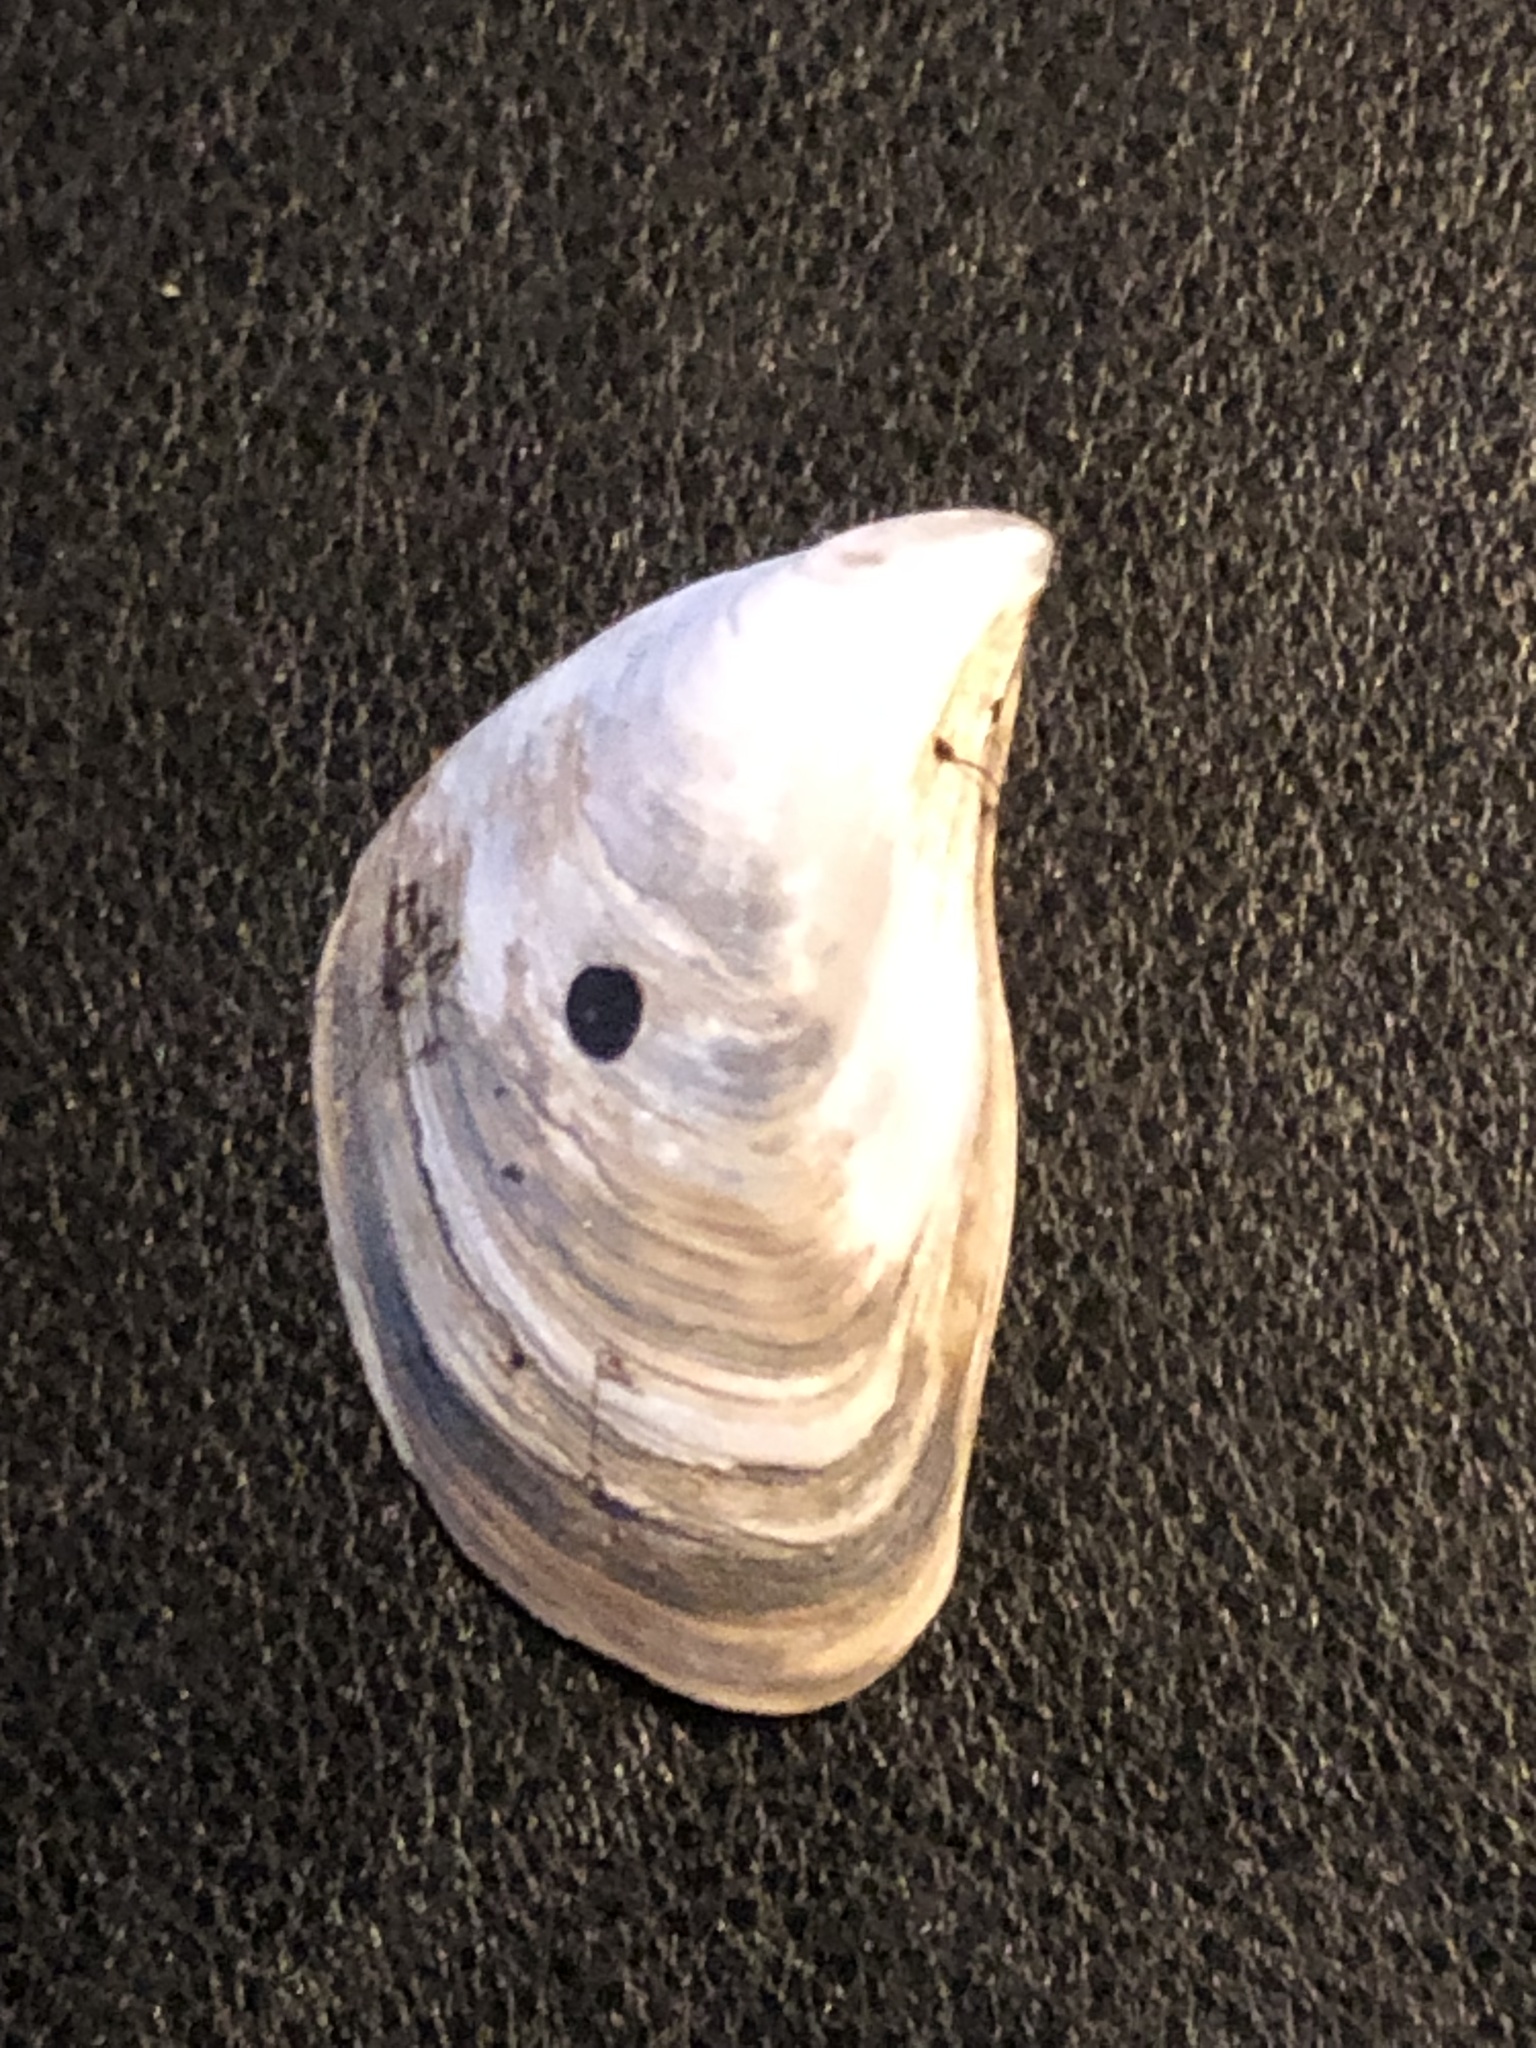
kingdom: Animalia
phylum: Mollusca
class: Bivalvia
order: Myida
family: Dreissenidae
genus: Dreissena
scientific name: Dreissena bugensis
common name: Quagga mussel
